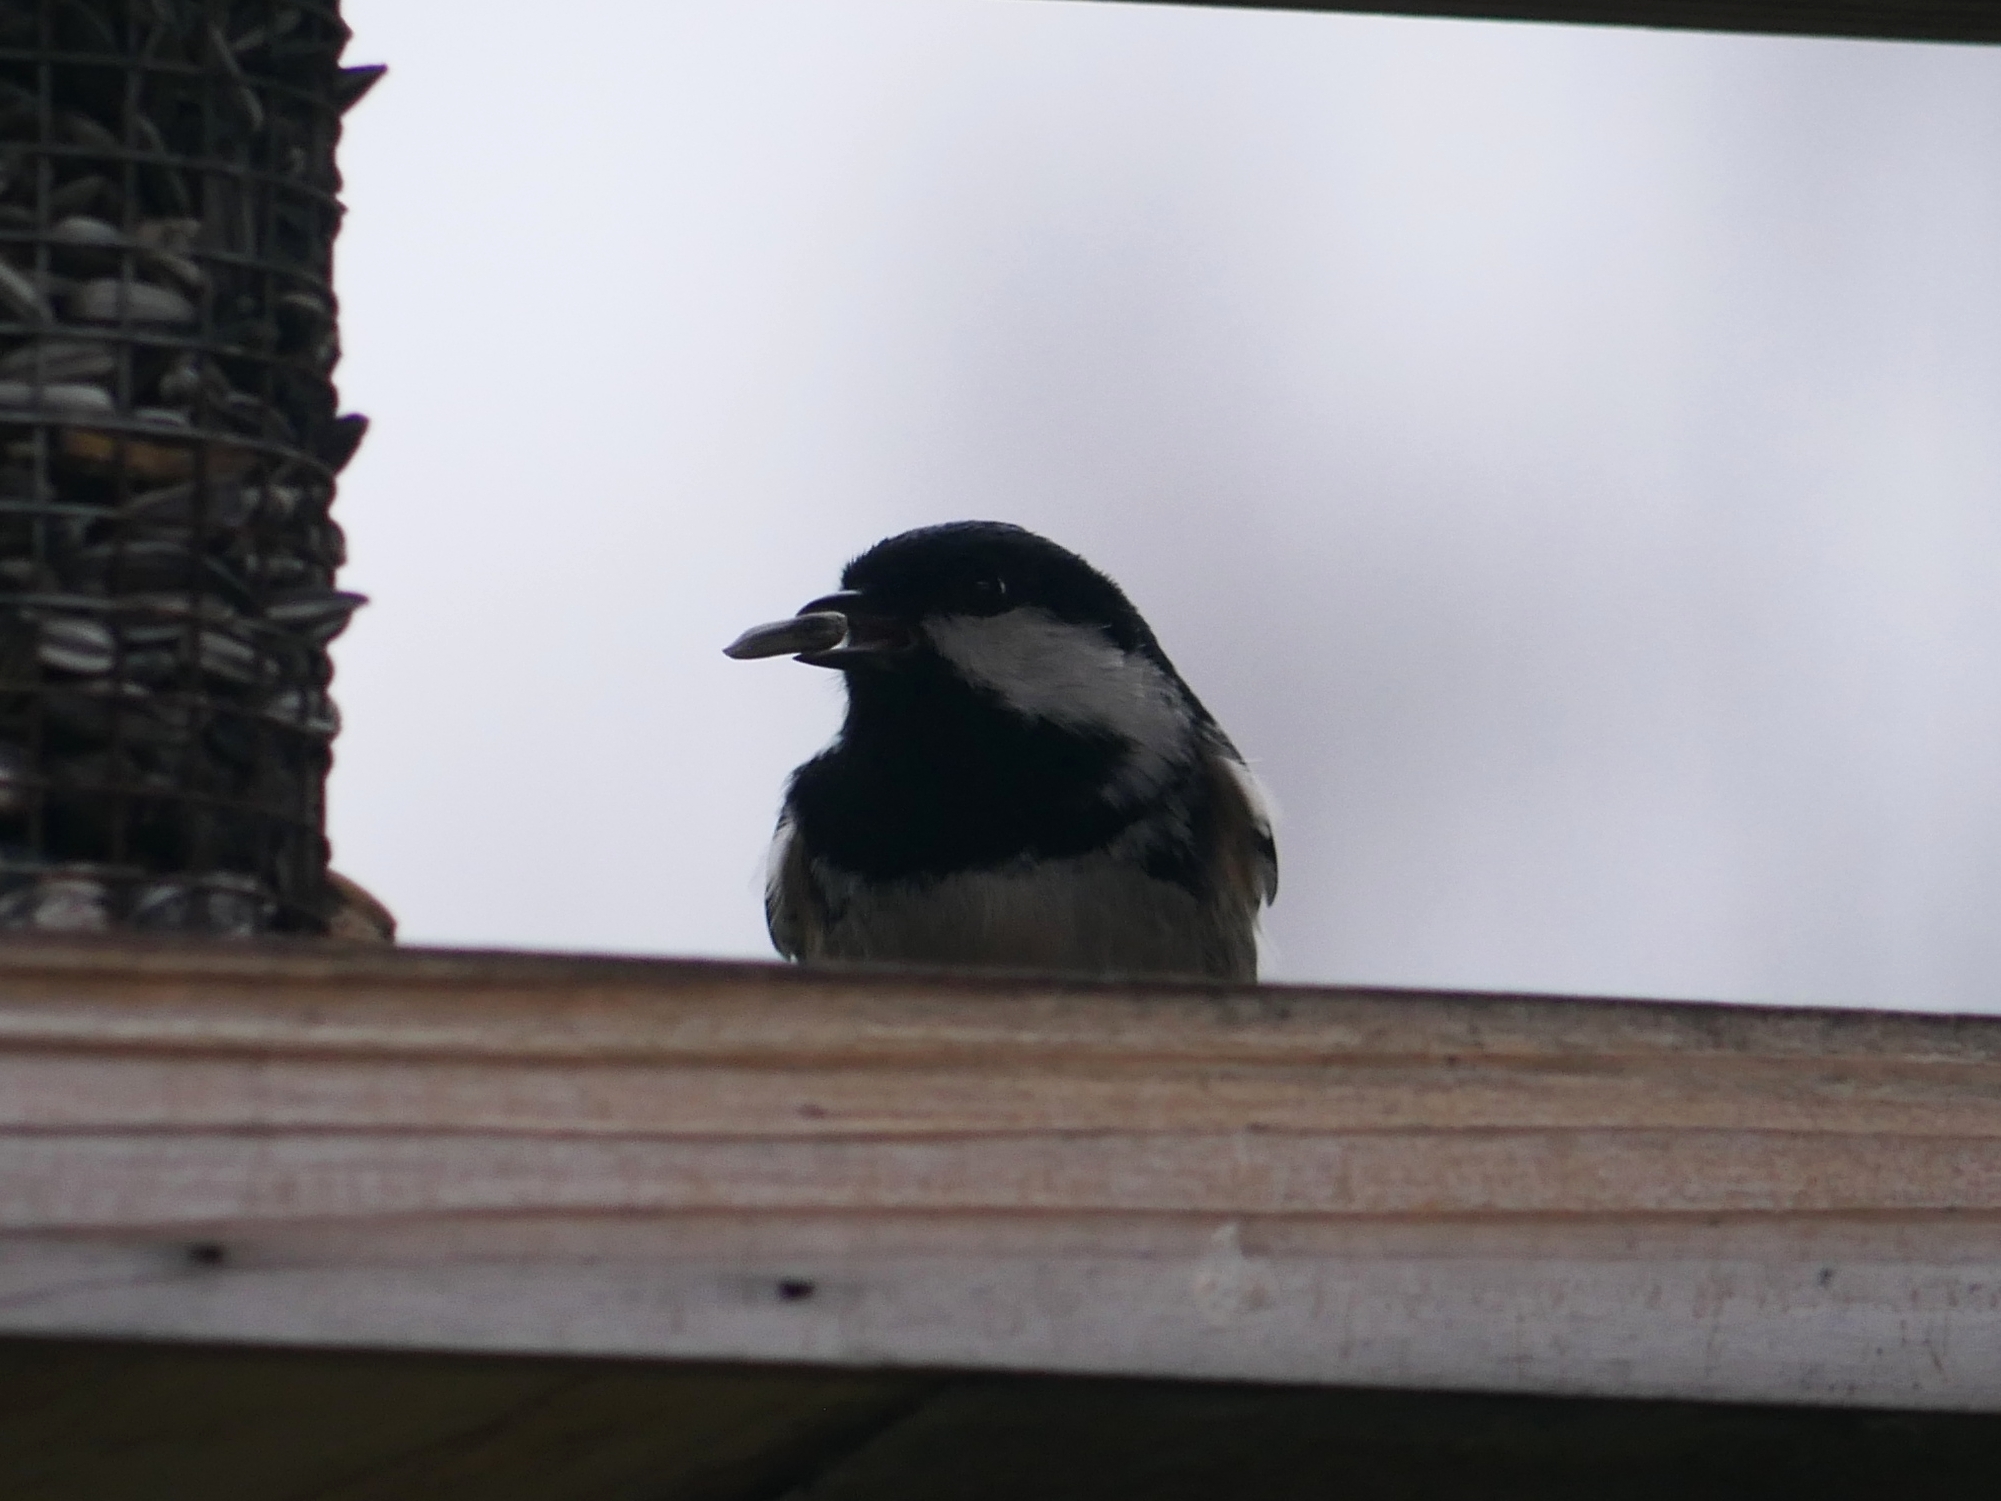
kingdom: Animalia
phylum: Chordata
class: Aves
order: Passeriformes
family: Paridae
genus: Periparus
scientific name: Periparus ater
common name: Coal tit
